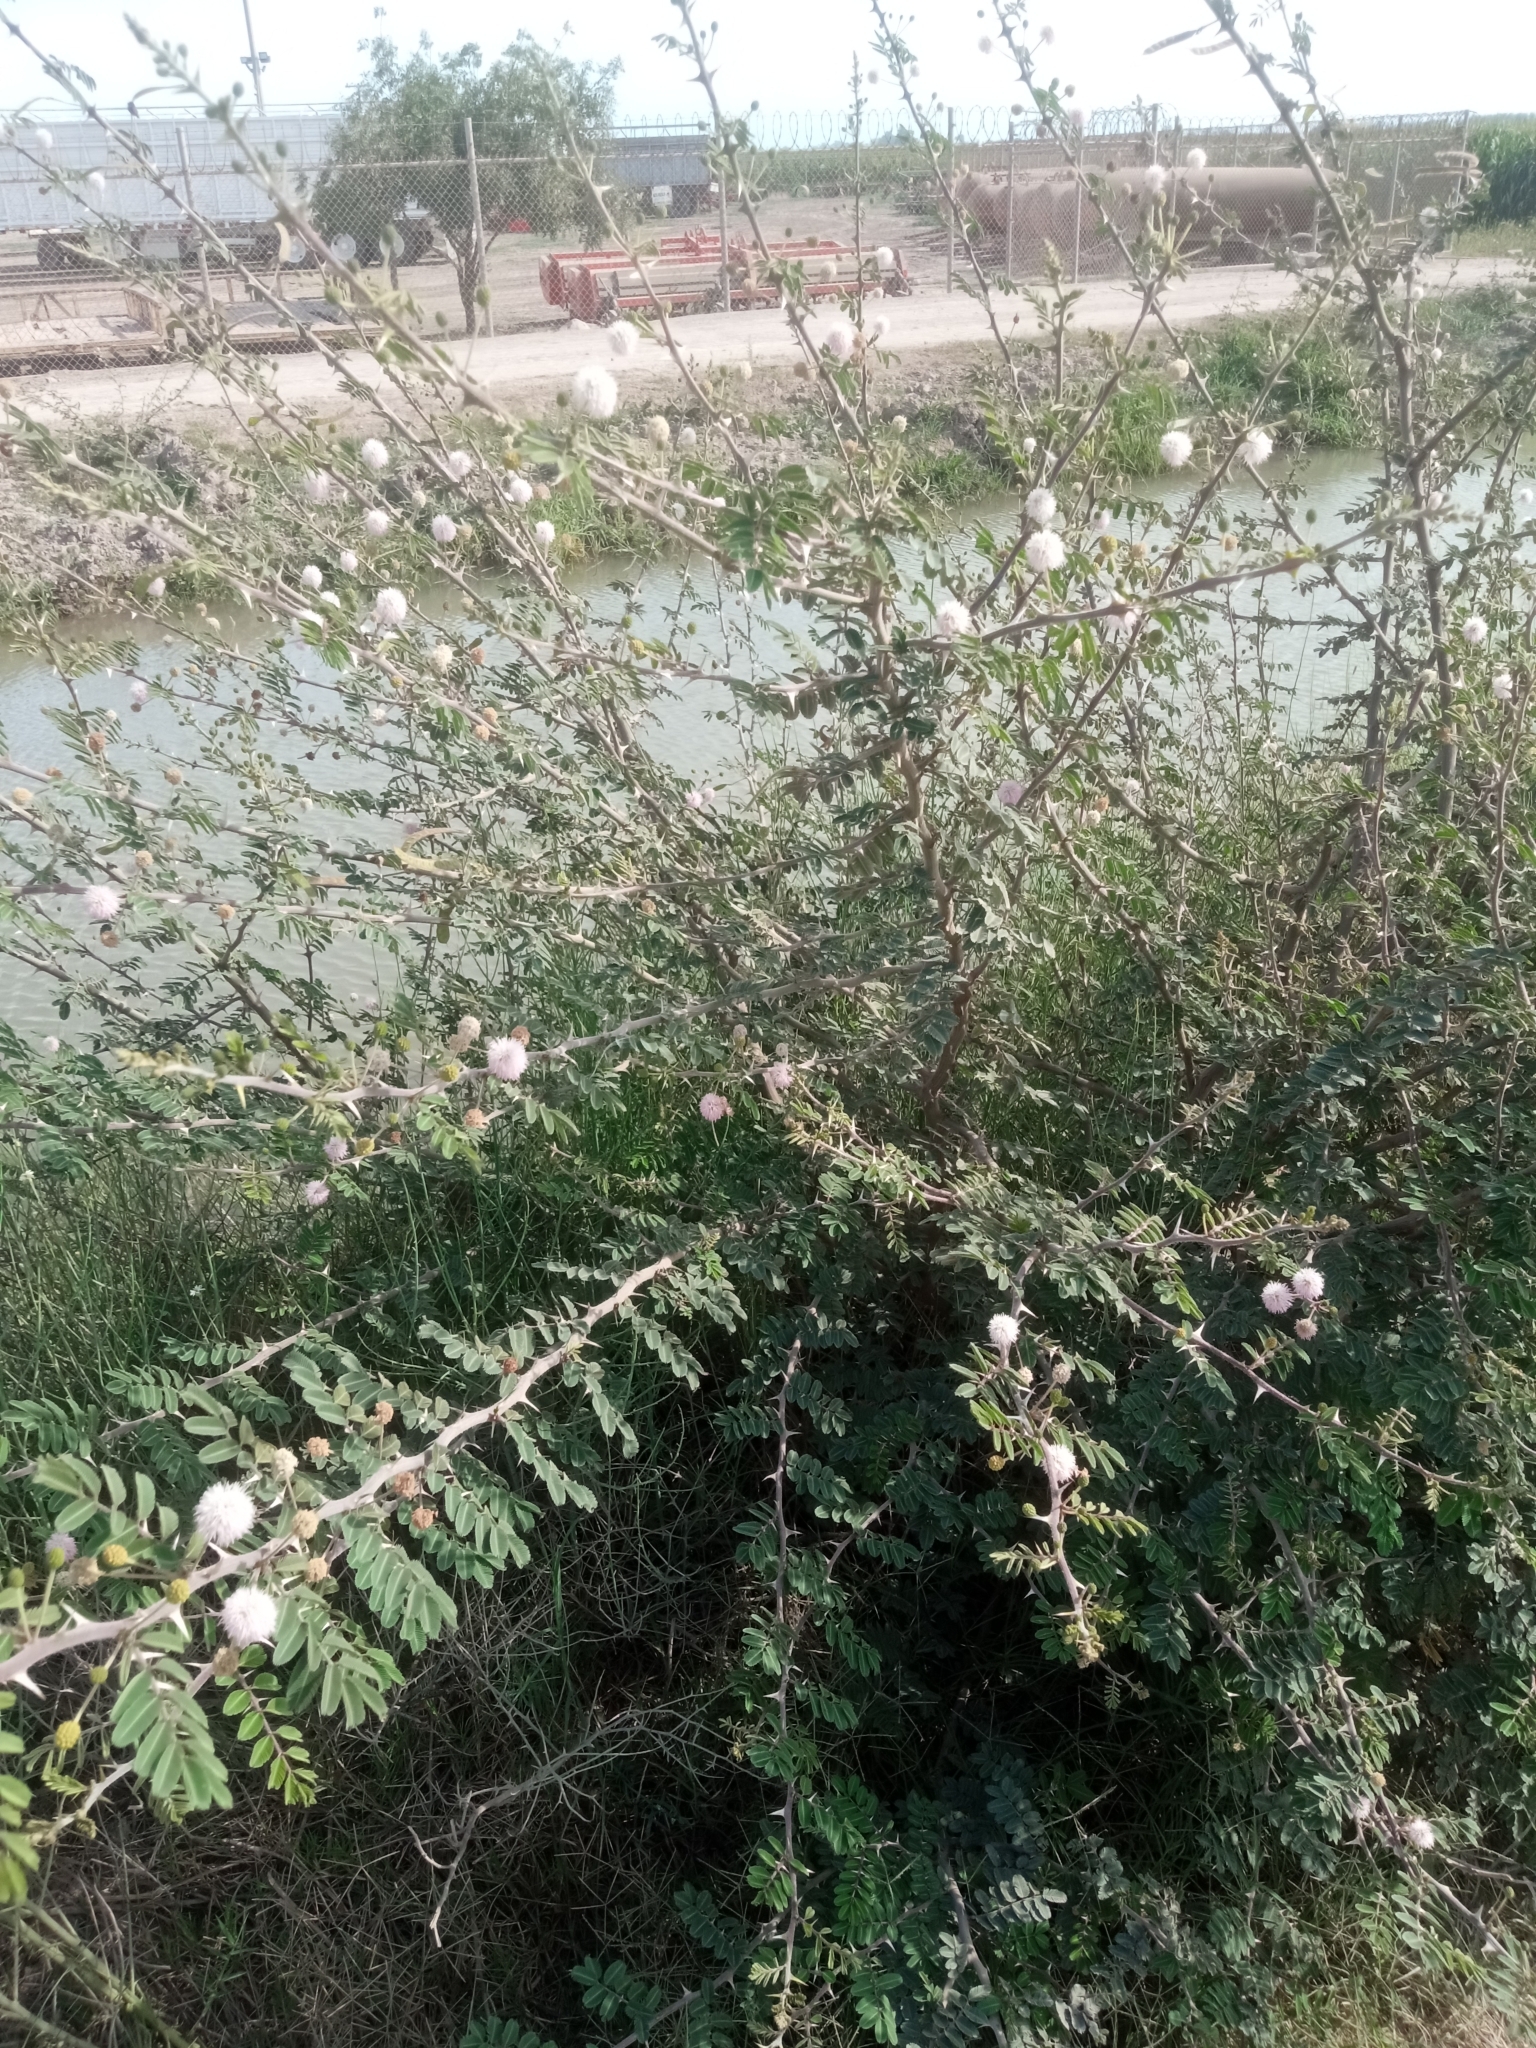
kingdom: Plantae
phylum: Tracheophyta
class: Magnoliopsida
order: Fabales
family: Fabaceae
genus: Mimosa
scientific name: Mimosa pigra
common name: Black mimosa
